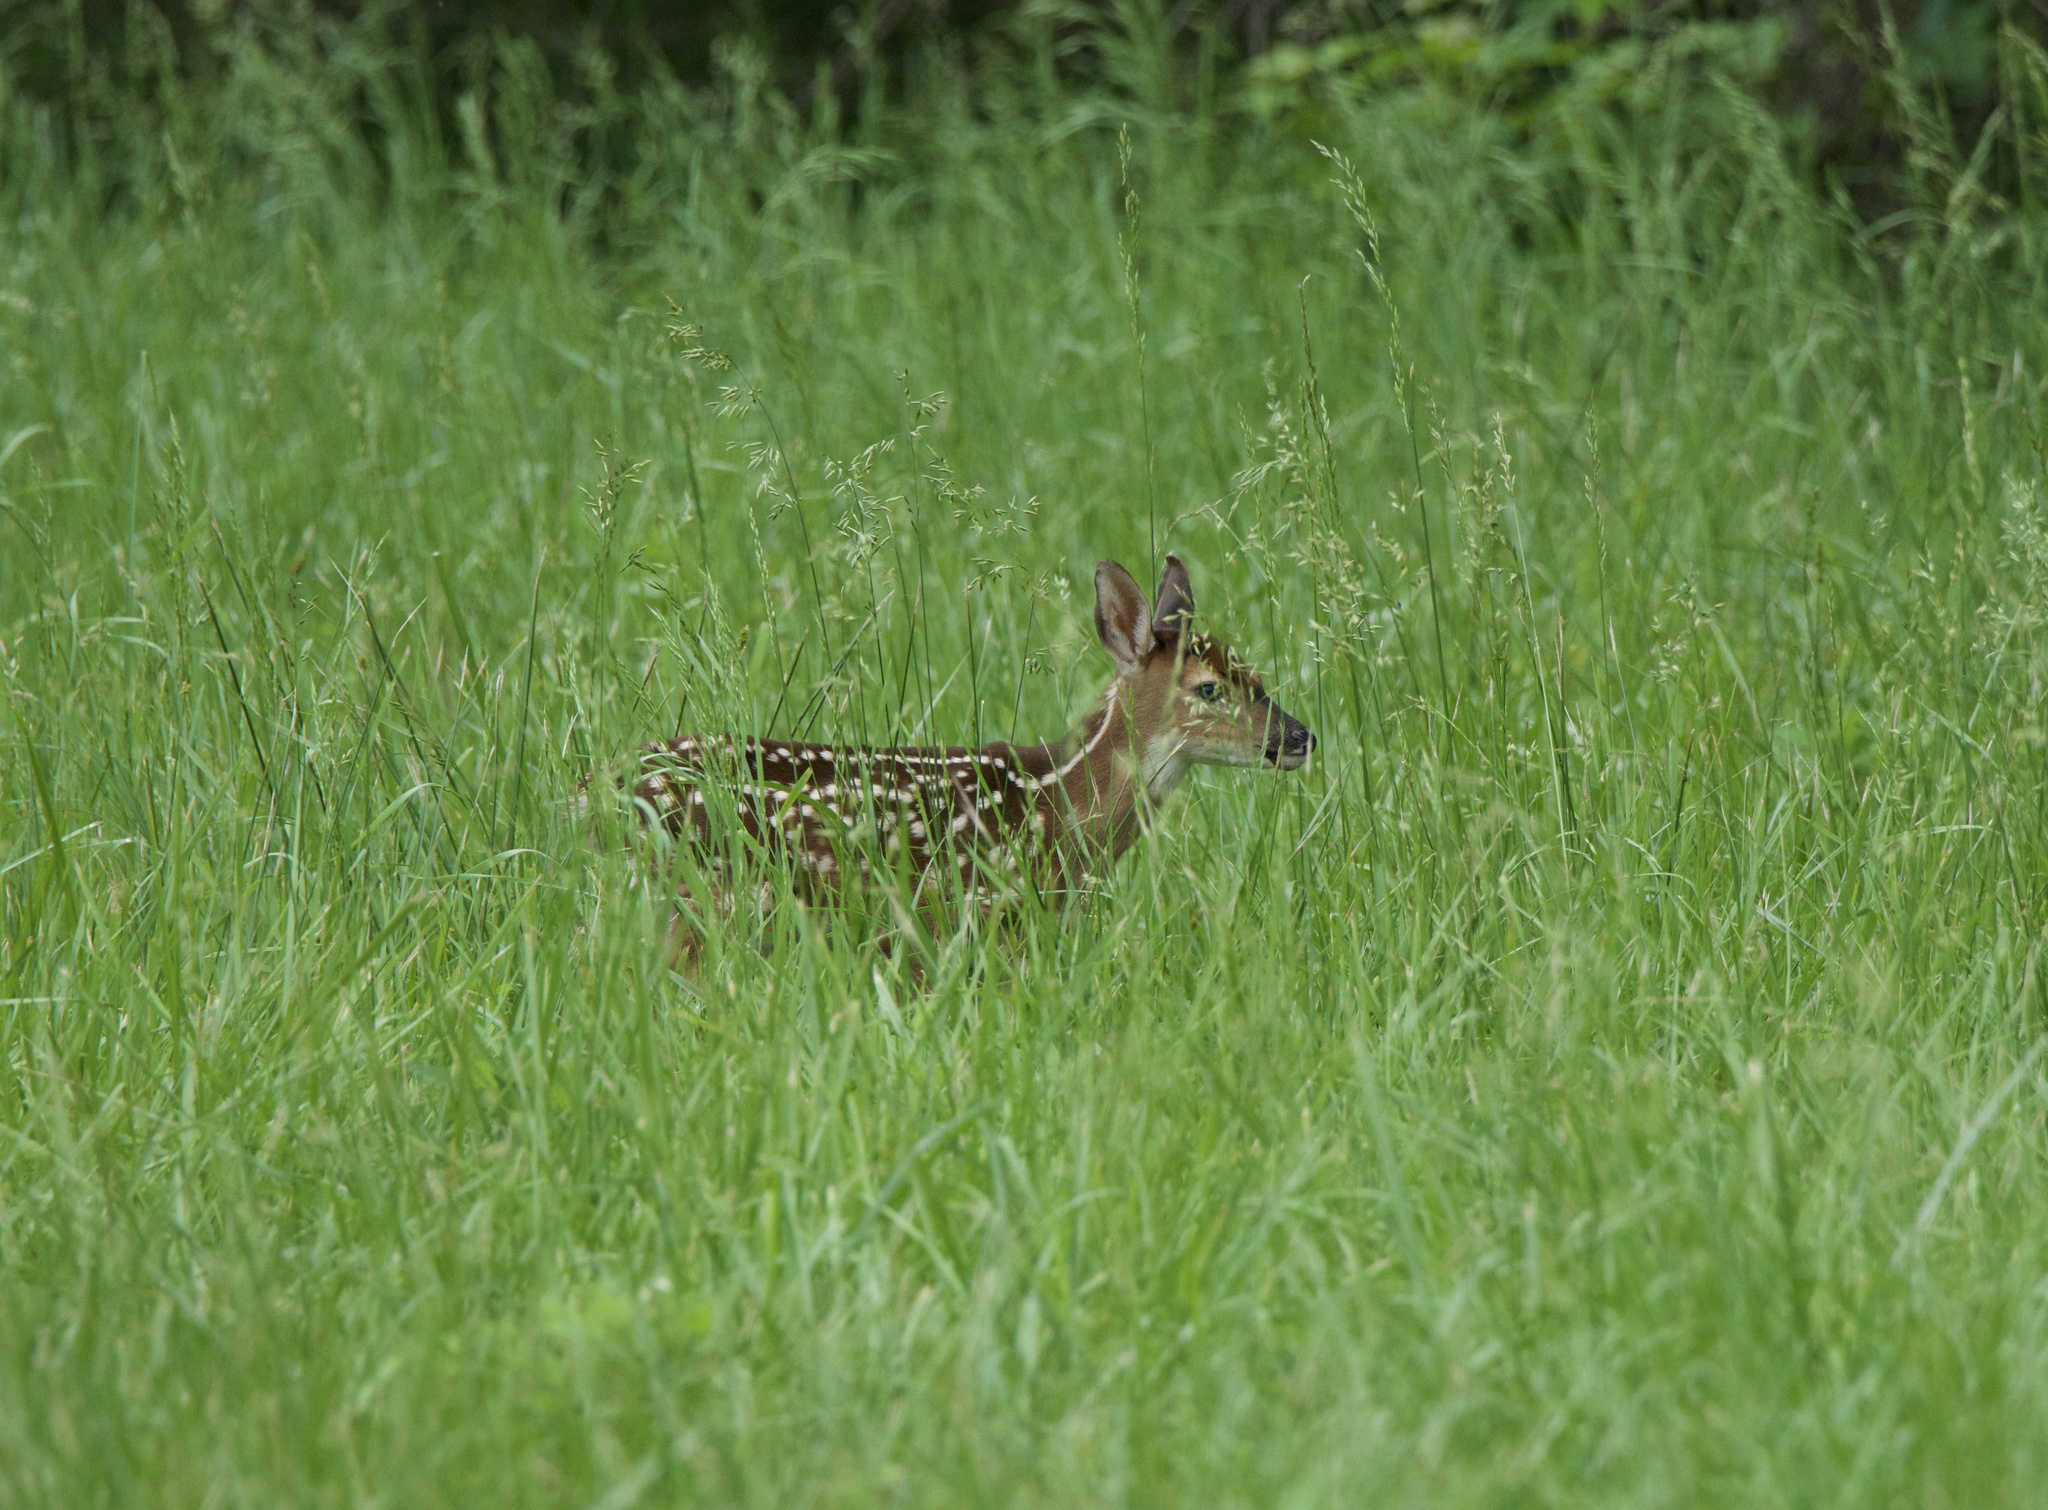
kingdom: Animalia
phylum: Chordata
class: Mammalia
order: Artiodactyla
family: Cervidae
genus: Odocoileus
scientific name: Odocoileus virginianus
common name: White-tailed deer
